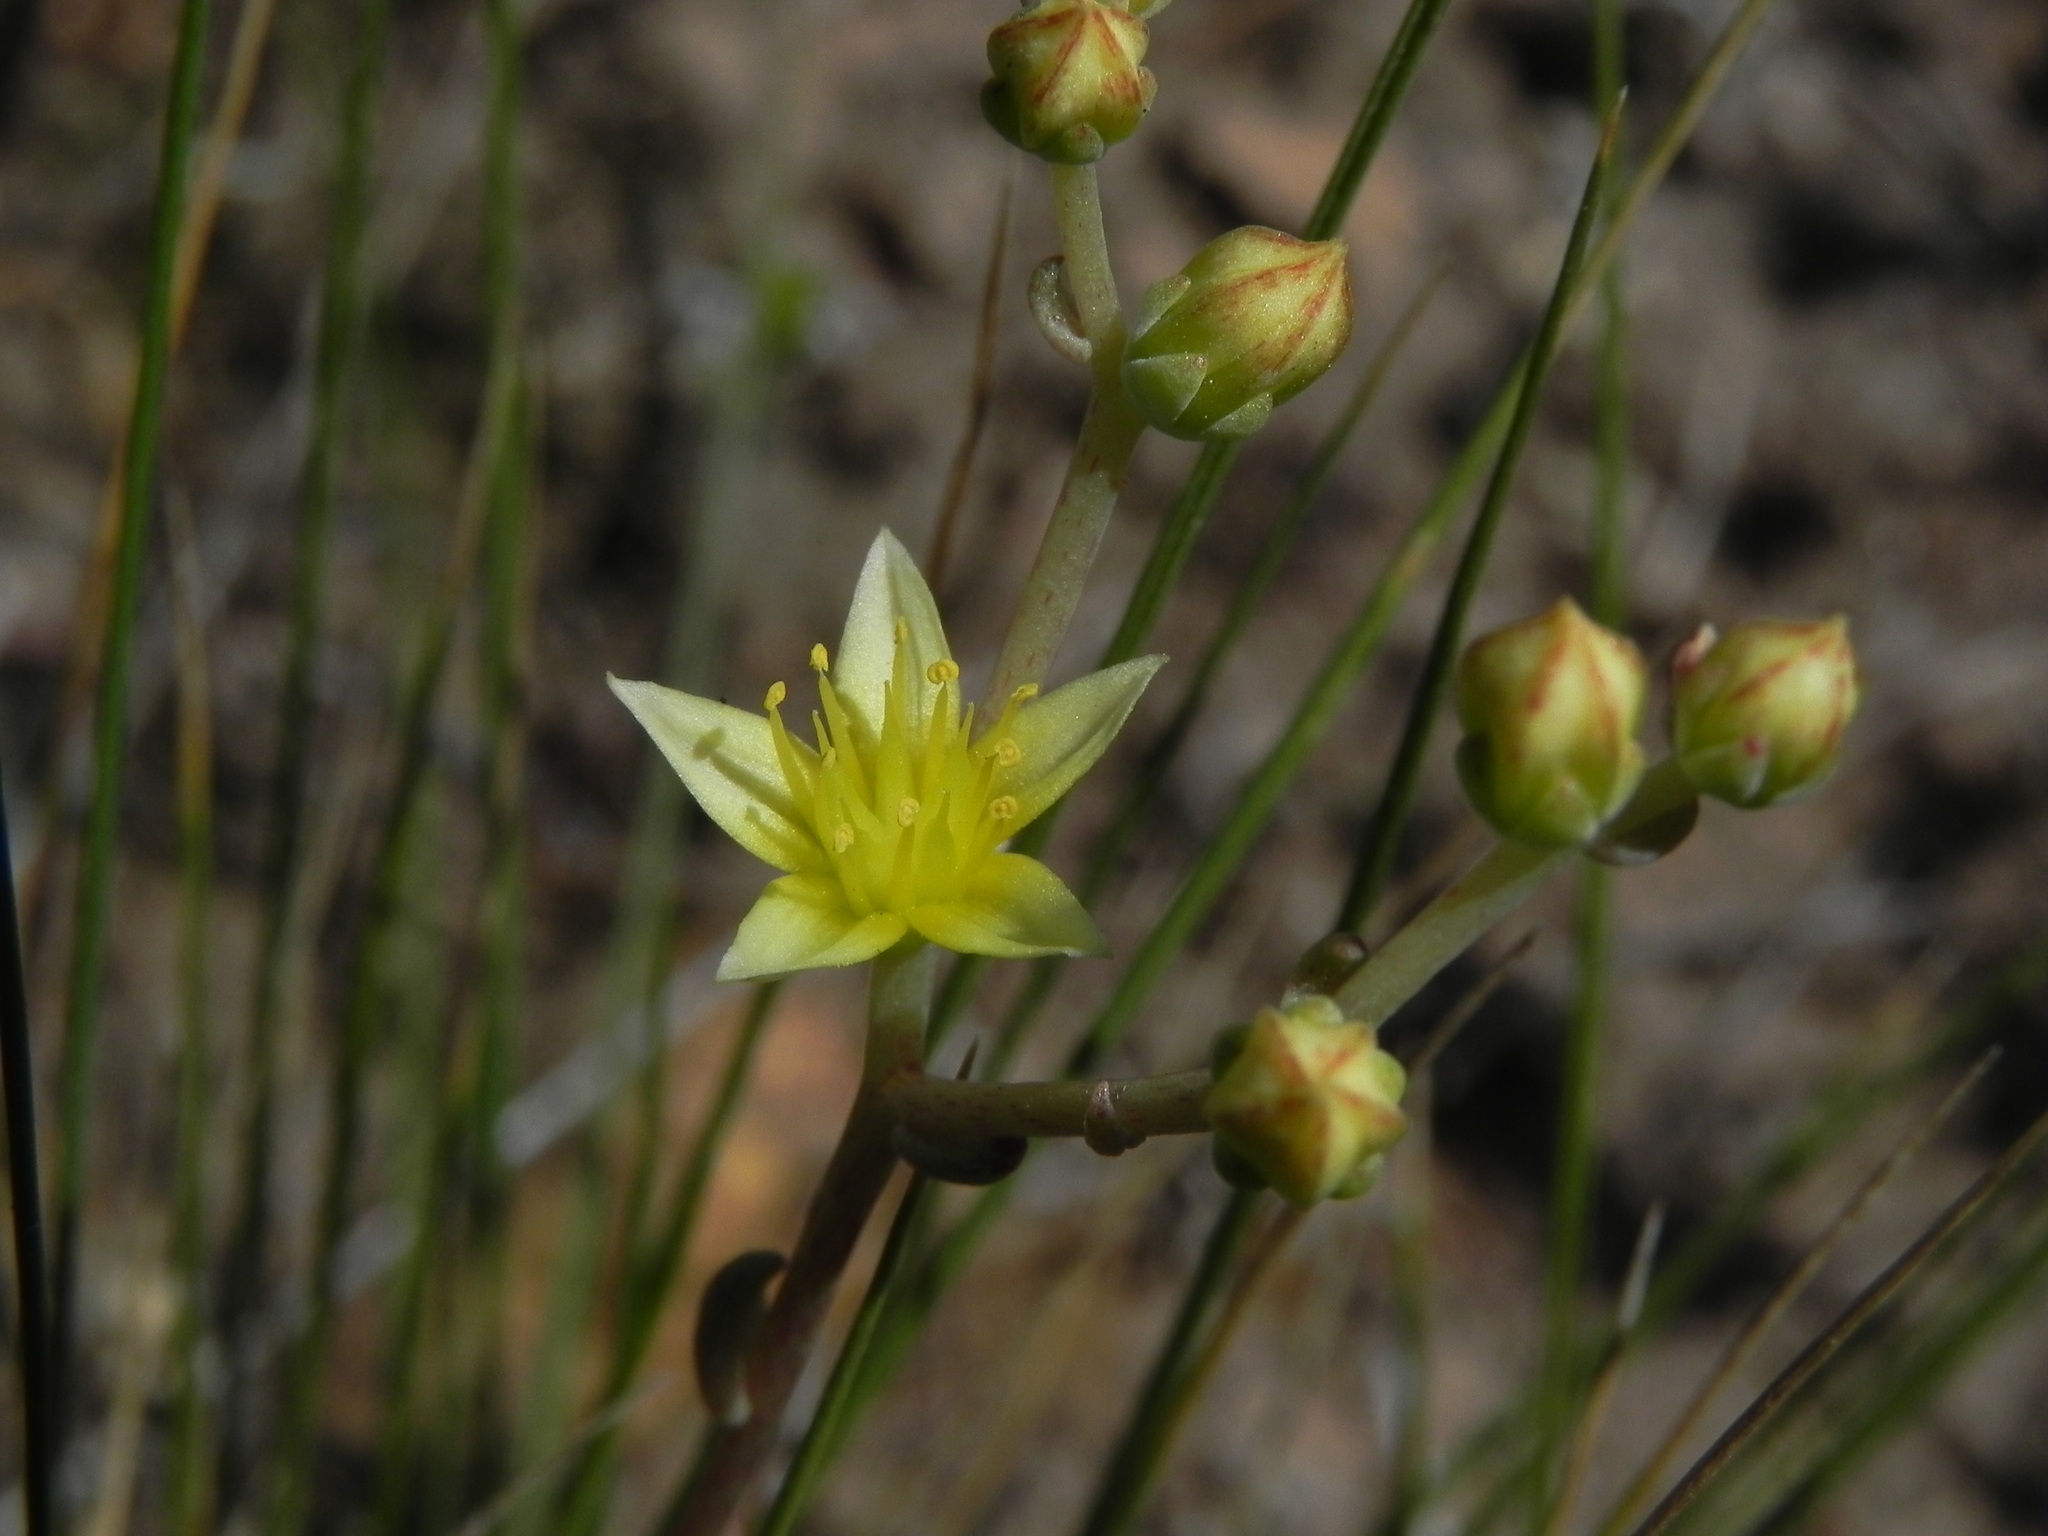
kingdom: Plantae
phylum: Tracheophyta
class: Magnoliopsida
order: Saxifragales
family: Crassulaceae
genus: Dudleya
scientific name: Dudleya variegata
